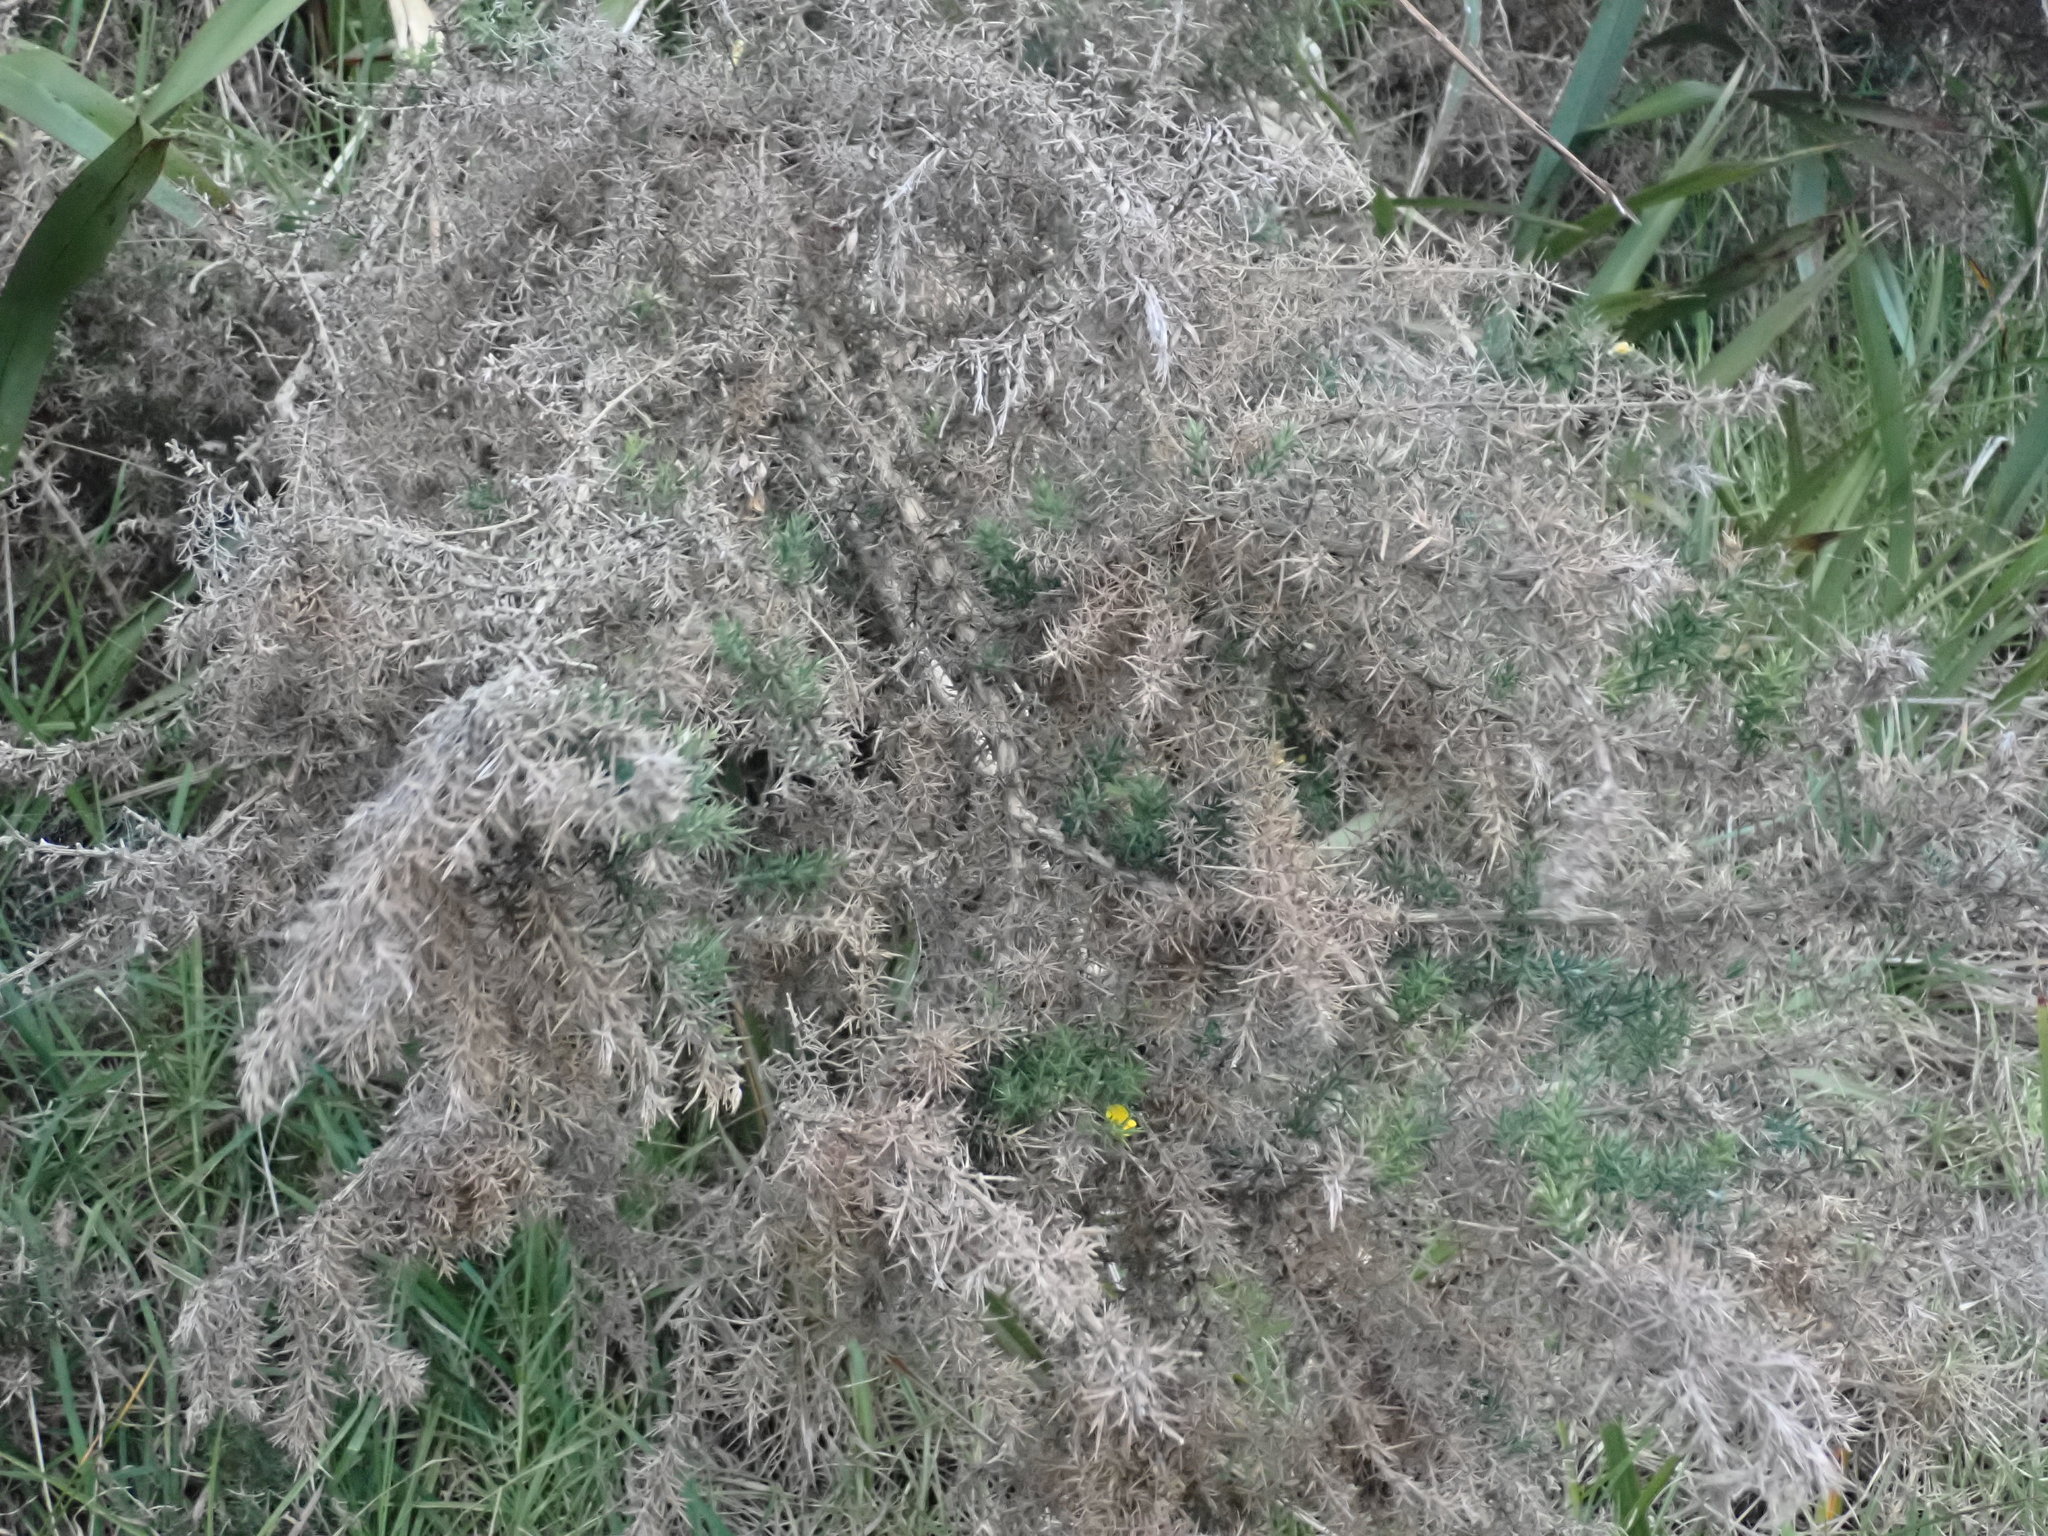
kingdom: Plantae
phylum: Tracheophyta
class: Magnoliopsida
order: Fabales
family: Fabaceae
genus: Ulex
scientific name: Ulex europaeus
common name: Common gorse
